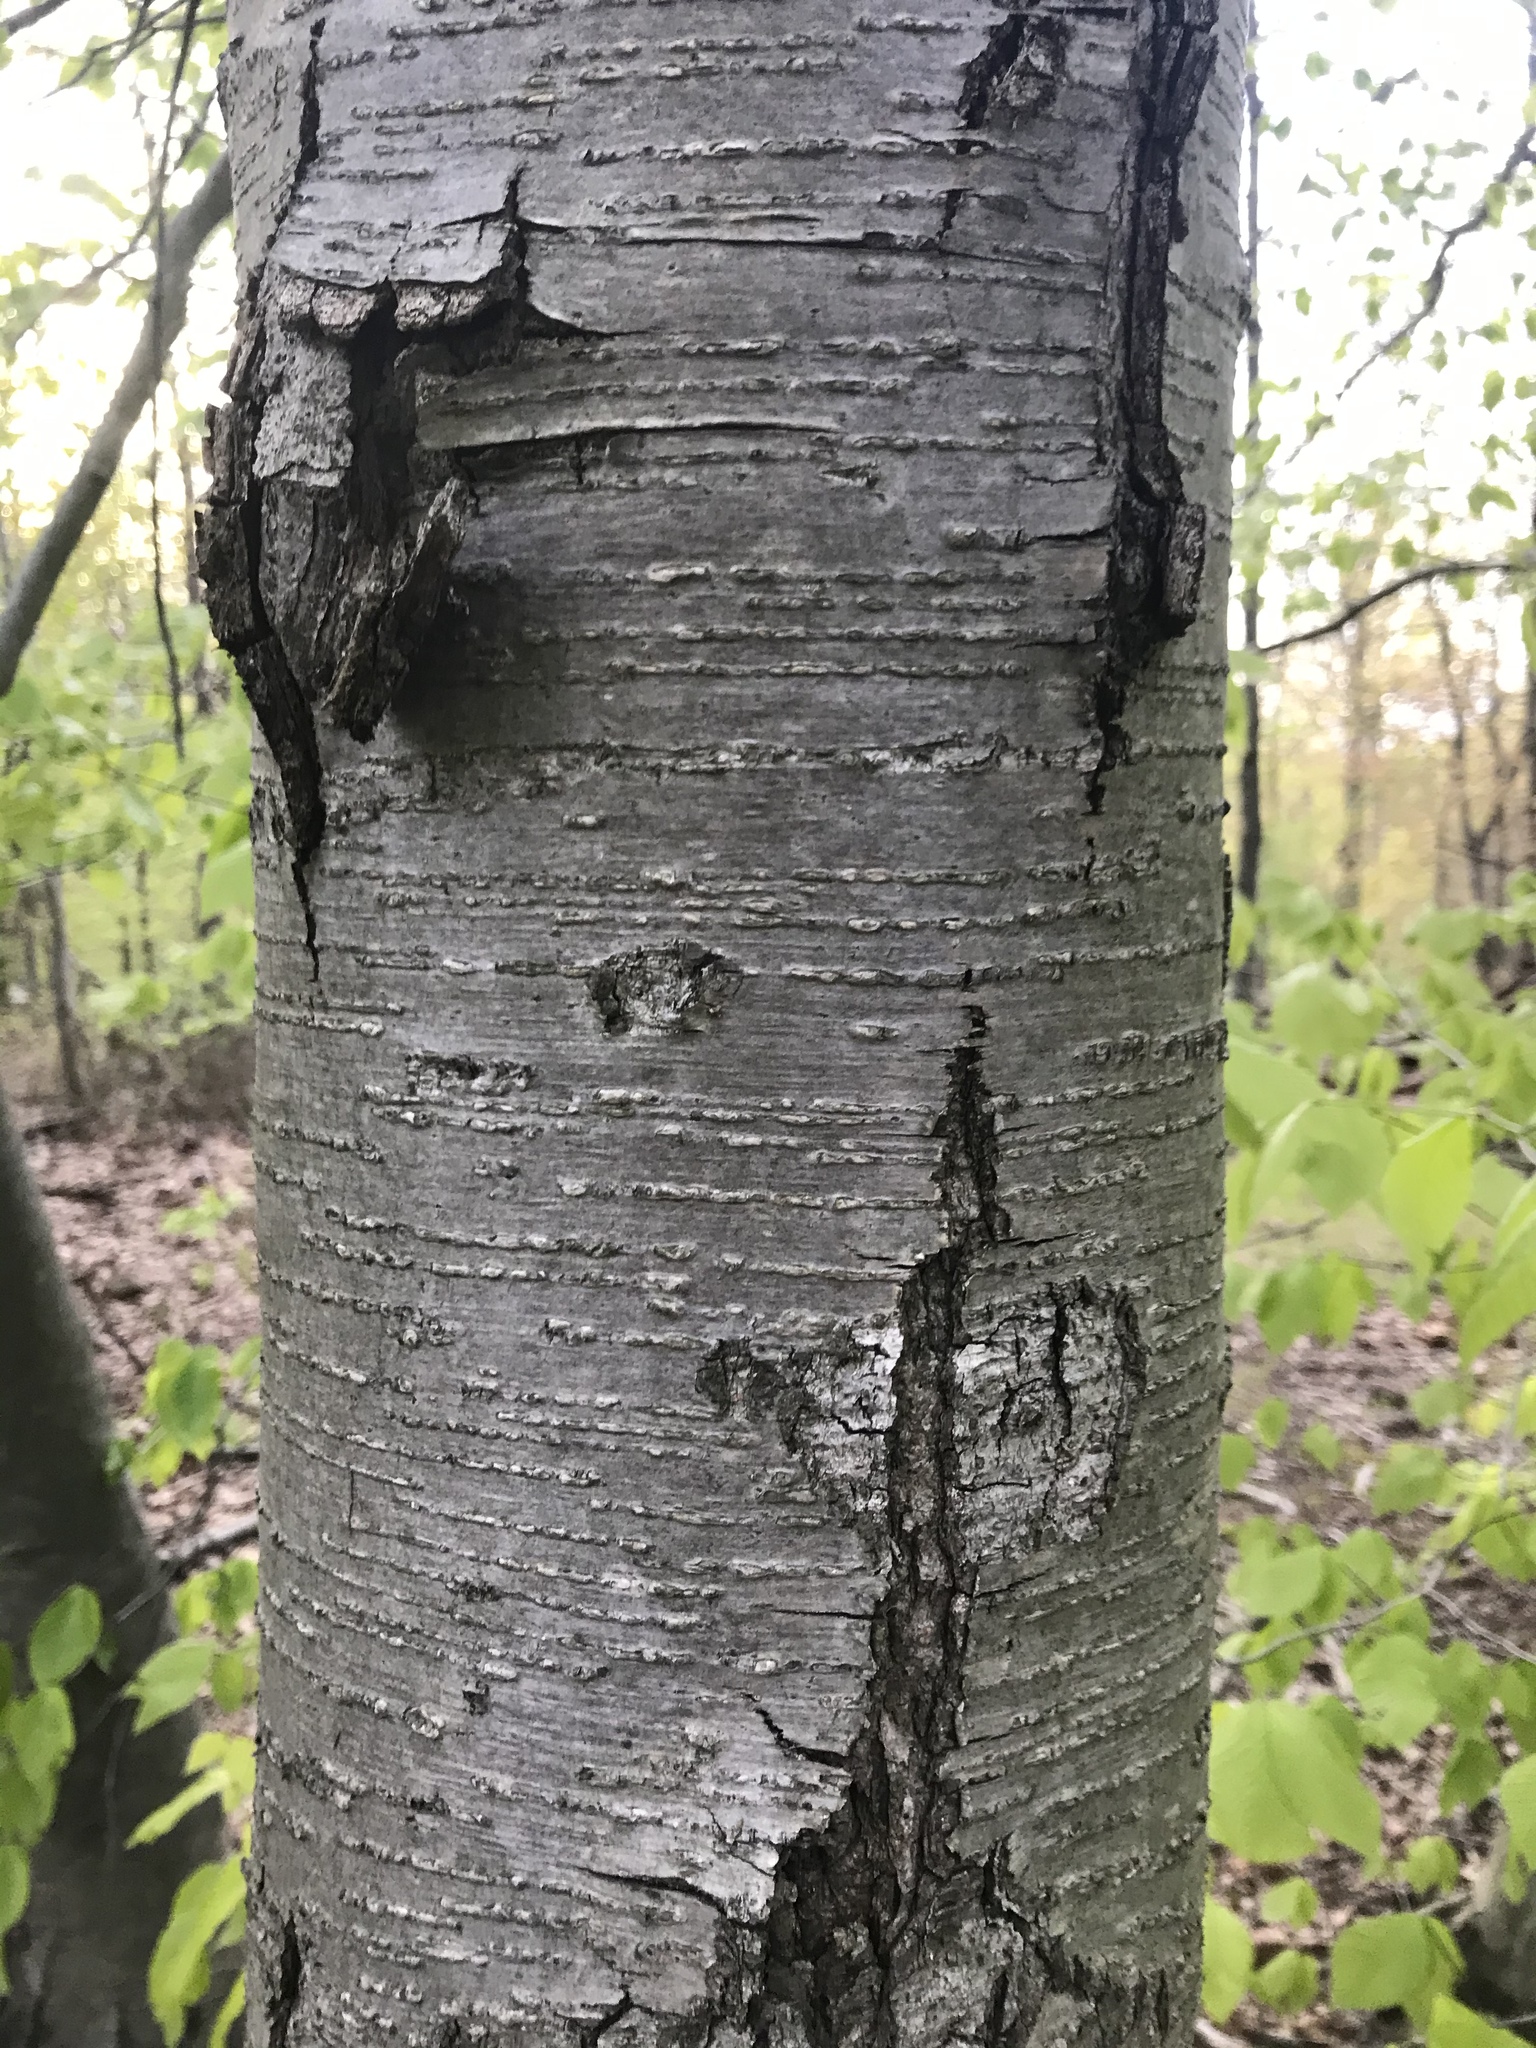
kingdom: Plantae
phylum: Tracheophyta
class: Magnoliopsida
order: Fagales
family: Betulaceae
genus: Betula
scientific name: Betula lenta
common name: Black birch
